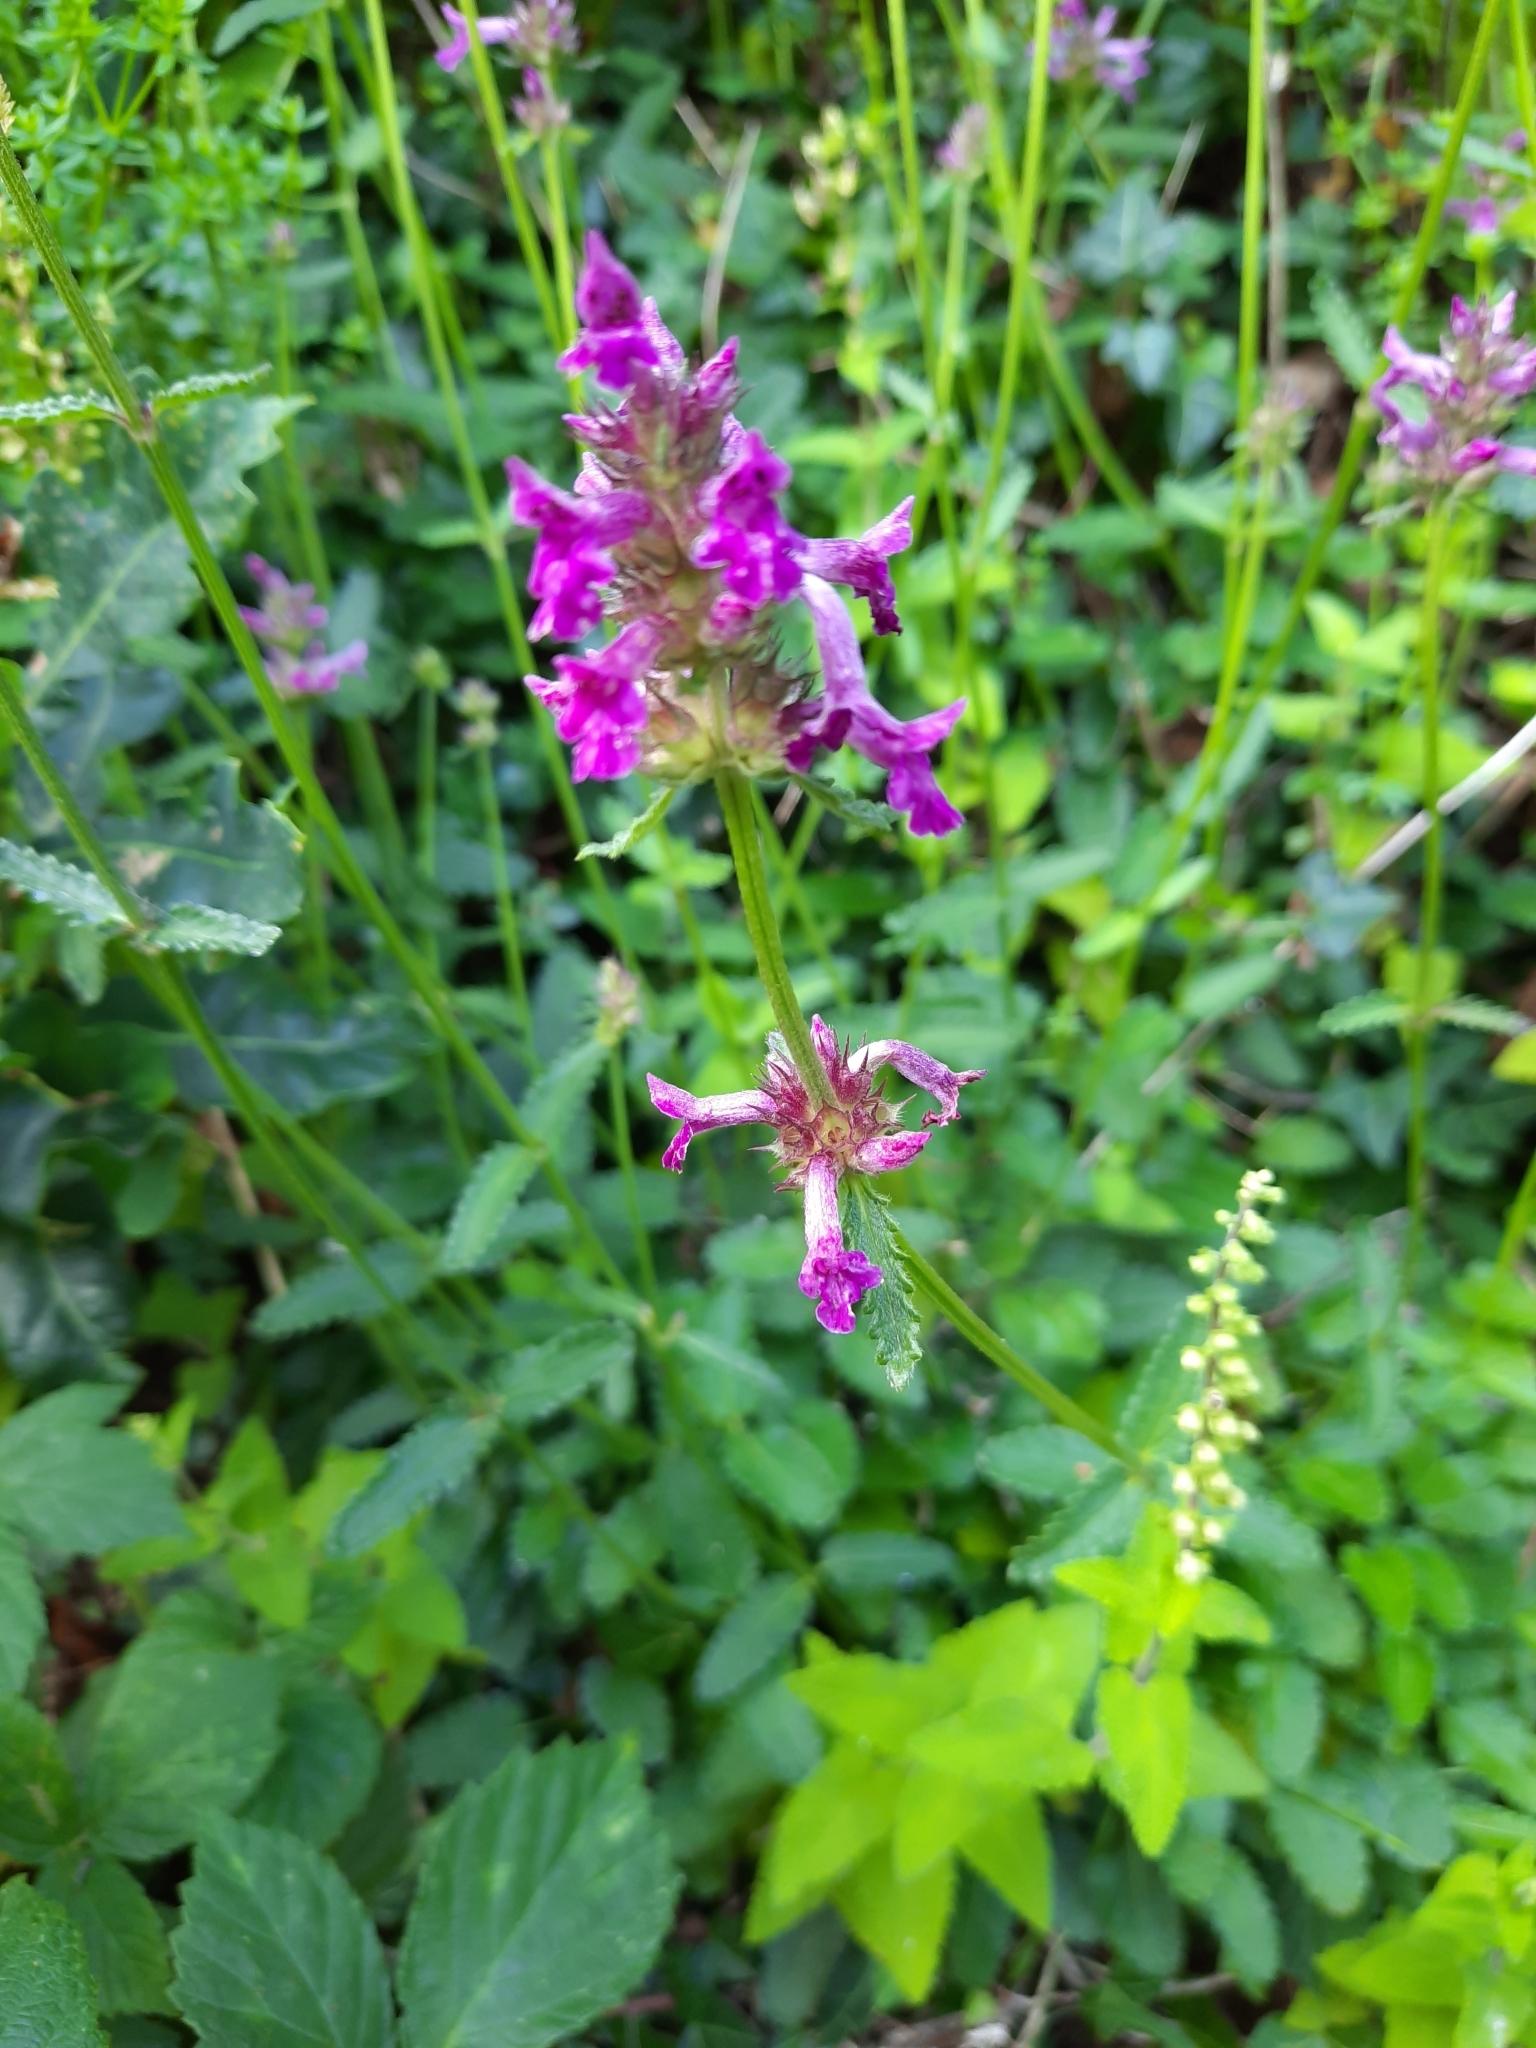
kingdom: Plantae
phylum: Tracheophyta
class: Magnoliopsida
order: Lamiales
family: Lamiaceae
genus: Betonica
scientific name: Betonica officinalis
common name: Bishop's-wort
